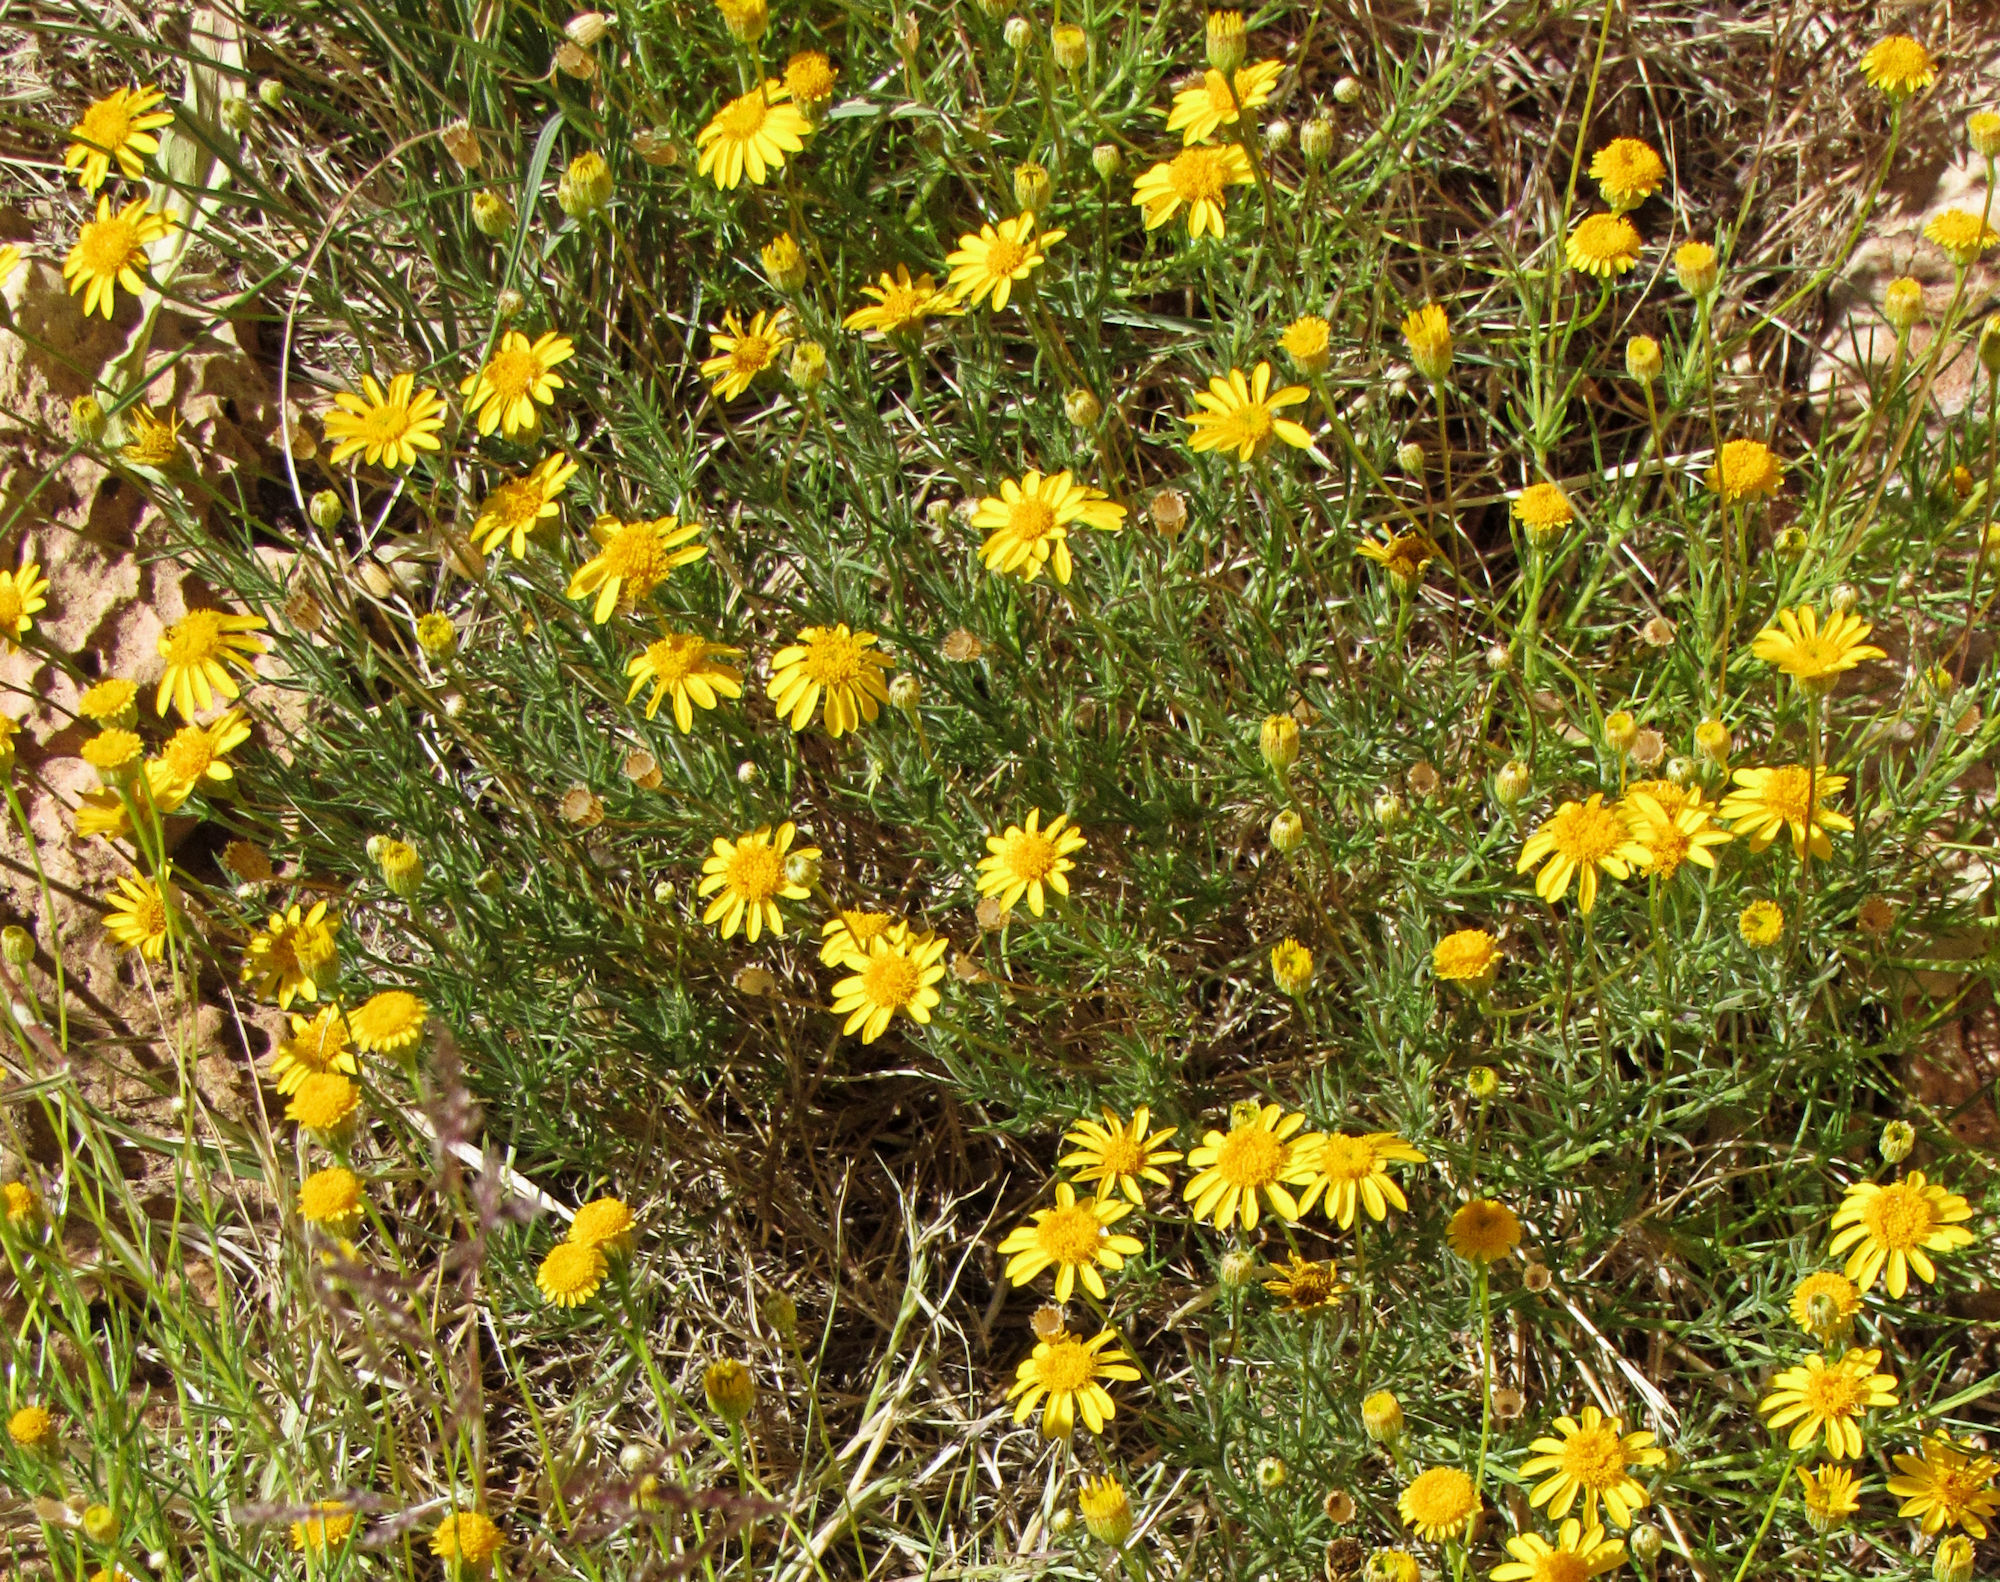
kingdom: Plantae
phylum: Tracheophyta
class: Magnoliopsida
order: Asterales
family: Asteraceae
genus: Thymophylla
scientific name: Thymophylla pentachaeta
